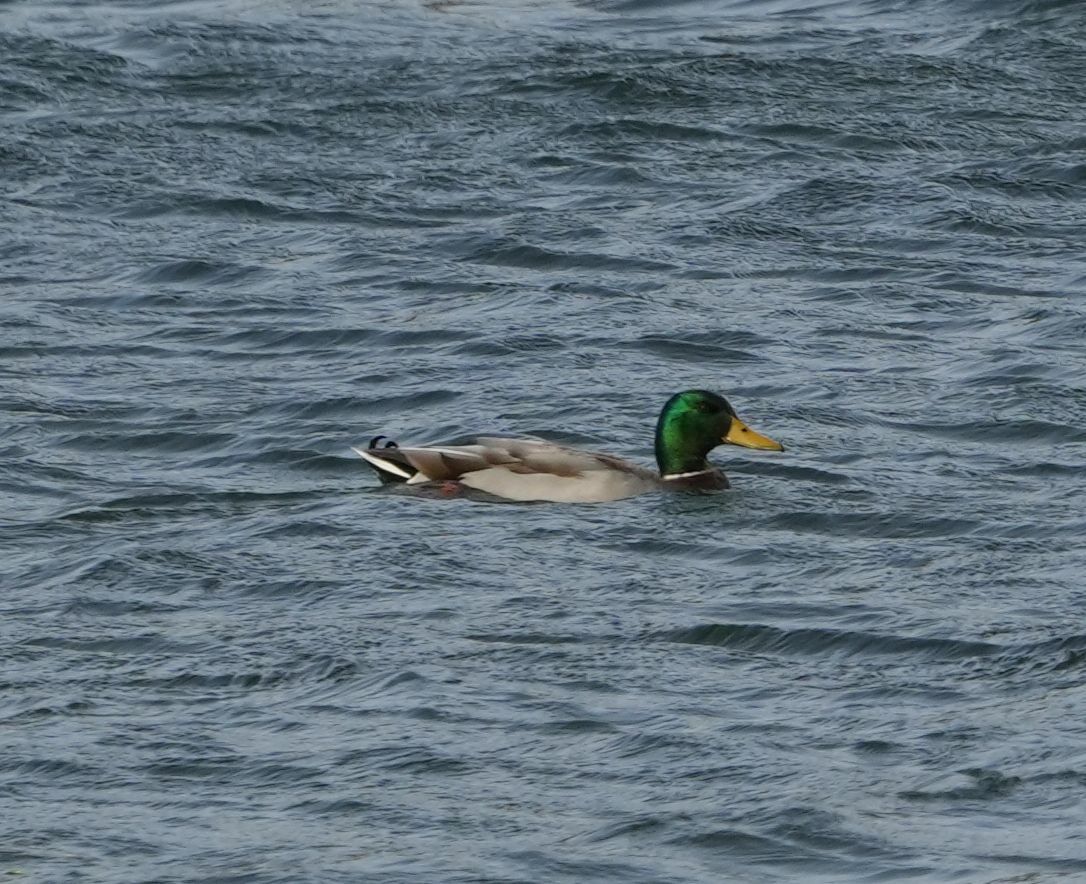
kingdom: Animalia
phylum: Chordata
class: Aves
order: Anseriformes
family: Anatidae
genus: Anas
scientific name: Anas platyrhynchos
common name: Mallard
